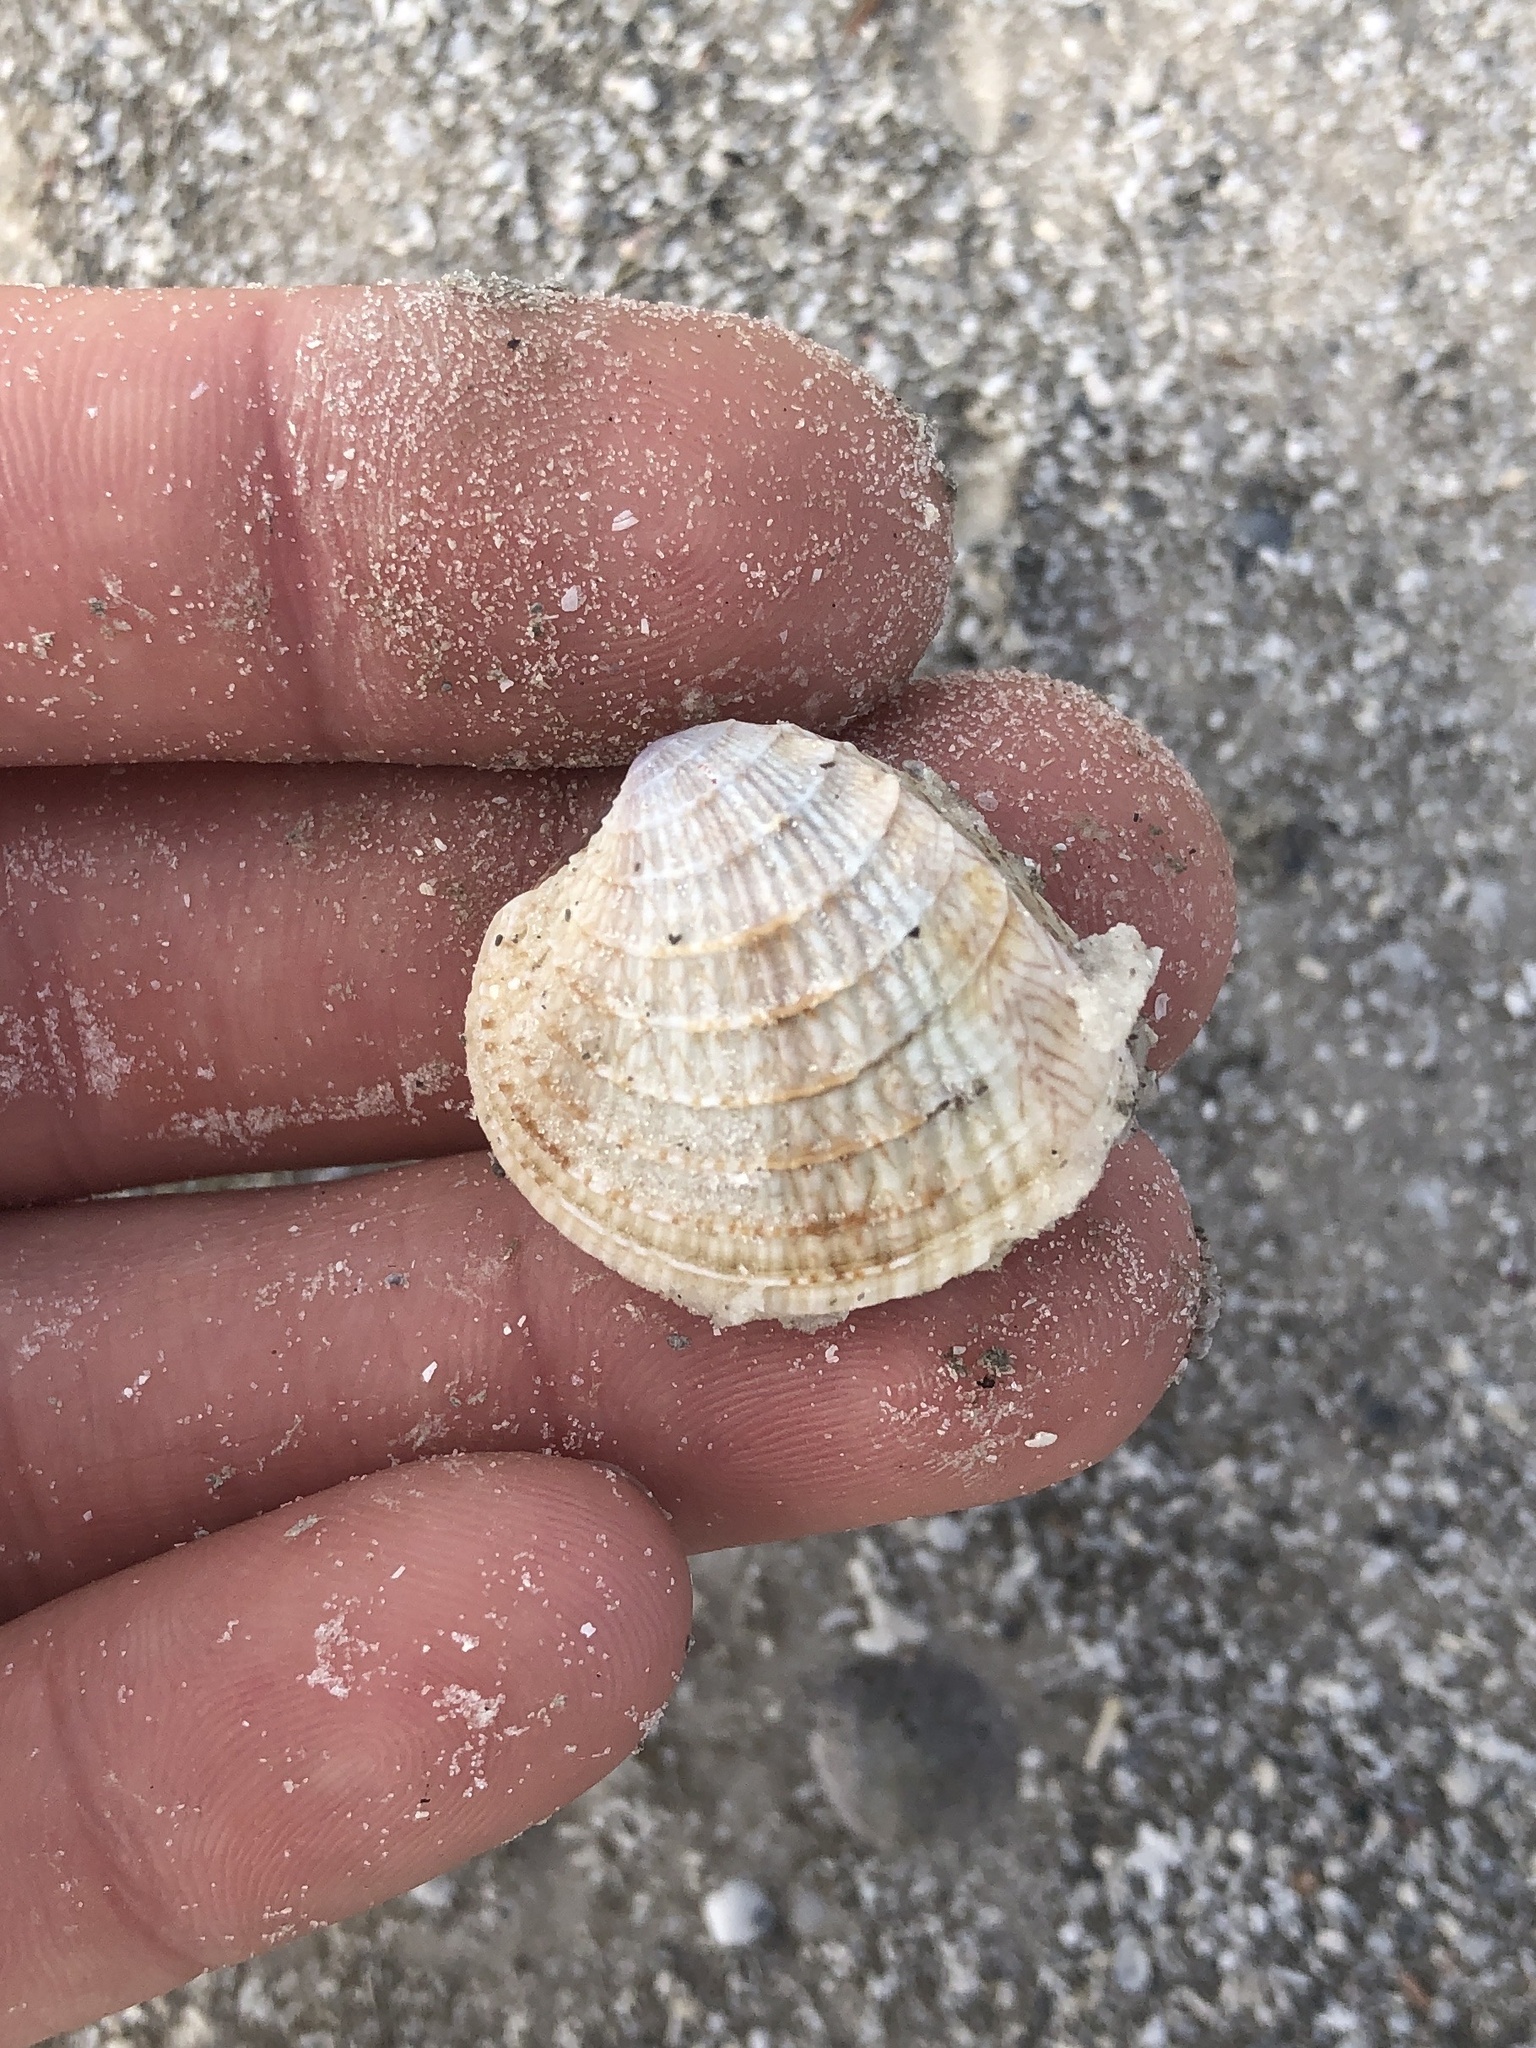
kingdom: Animalia
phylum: Mollusca
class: Bivalvia
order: Venerida
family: Veneridae
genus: Chione
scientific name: Chione elevata
